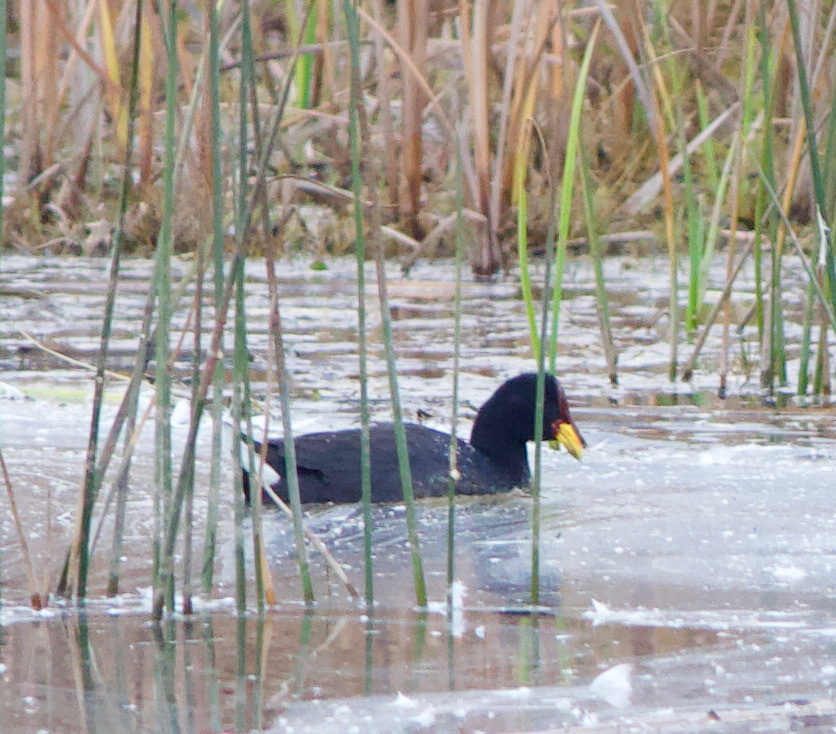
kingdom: Animalia
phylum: Chordata
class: Aves
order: Gruiformes
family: Rallidae
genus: Fulica
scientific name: Fulica rufifrons
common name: Red-fronted coot
